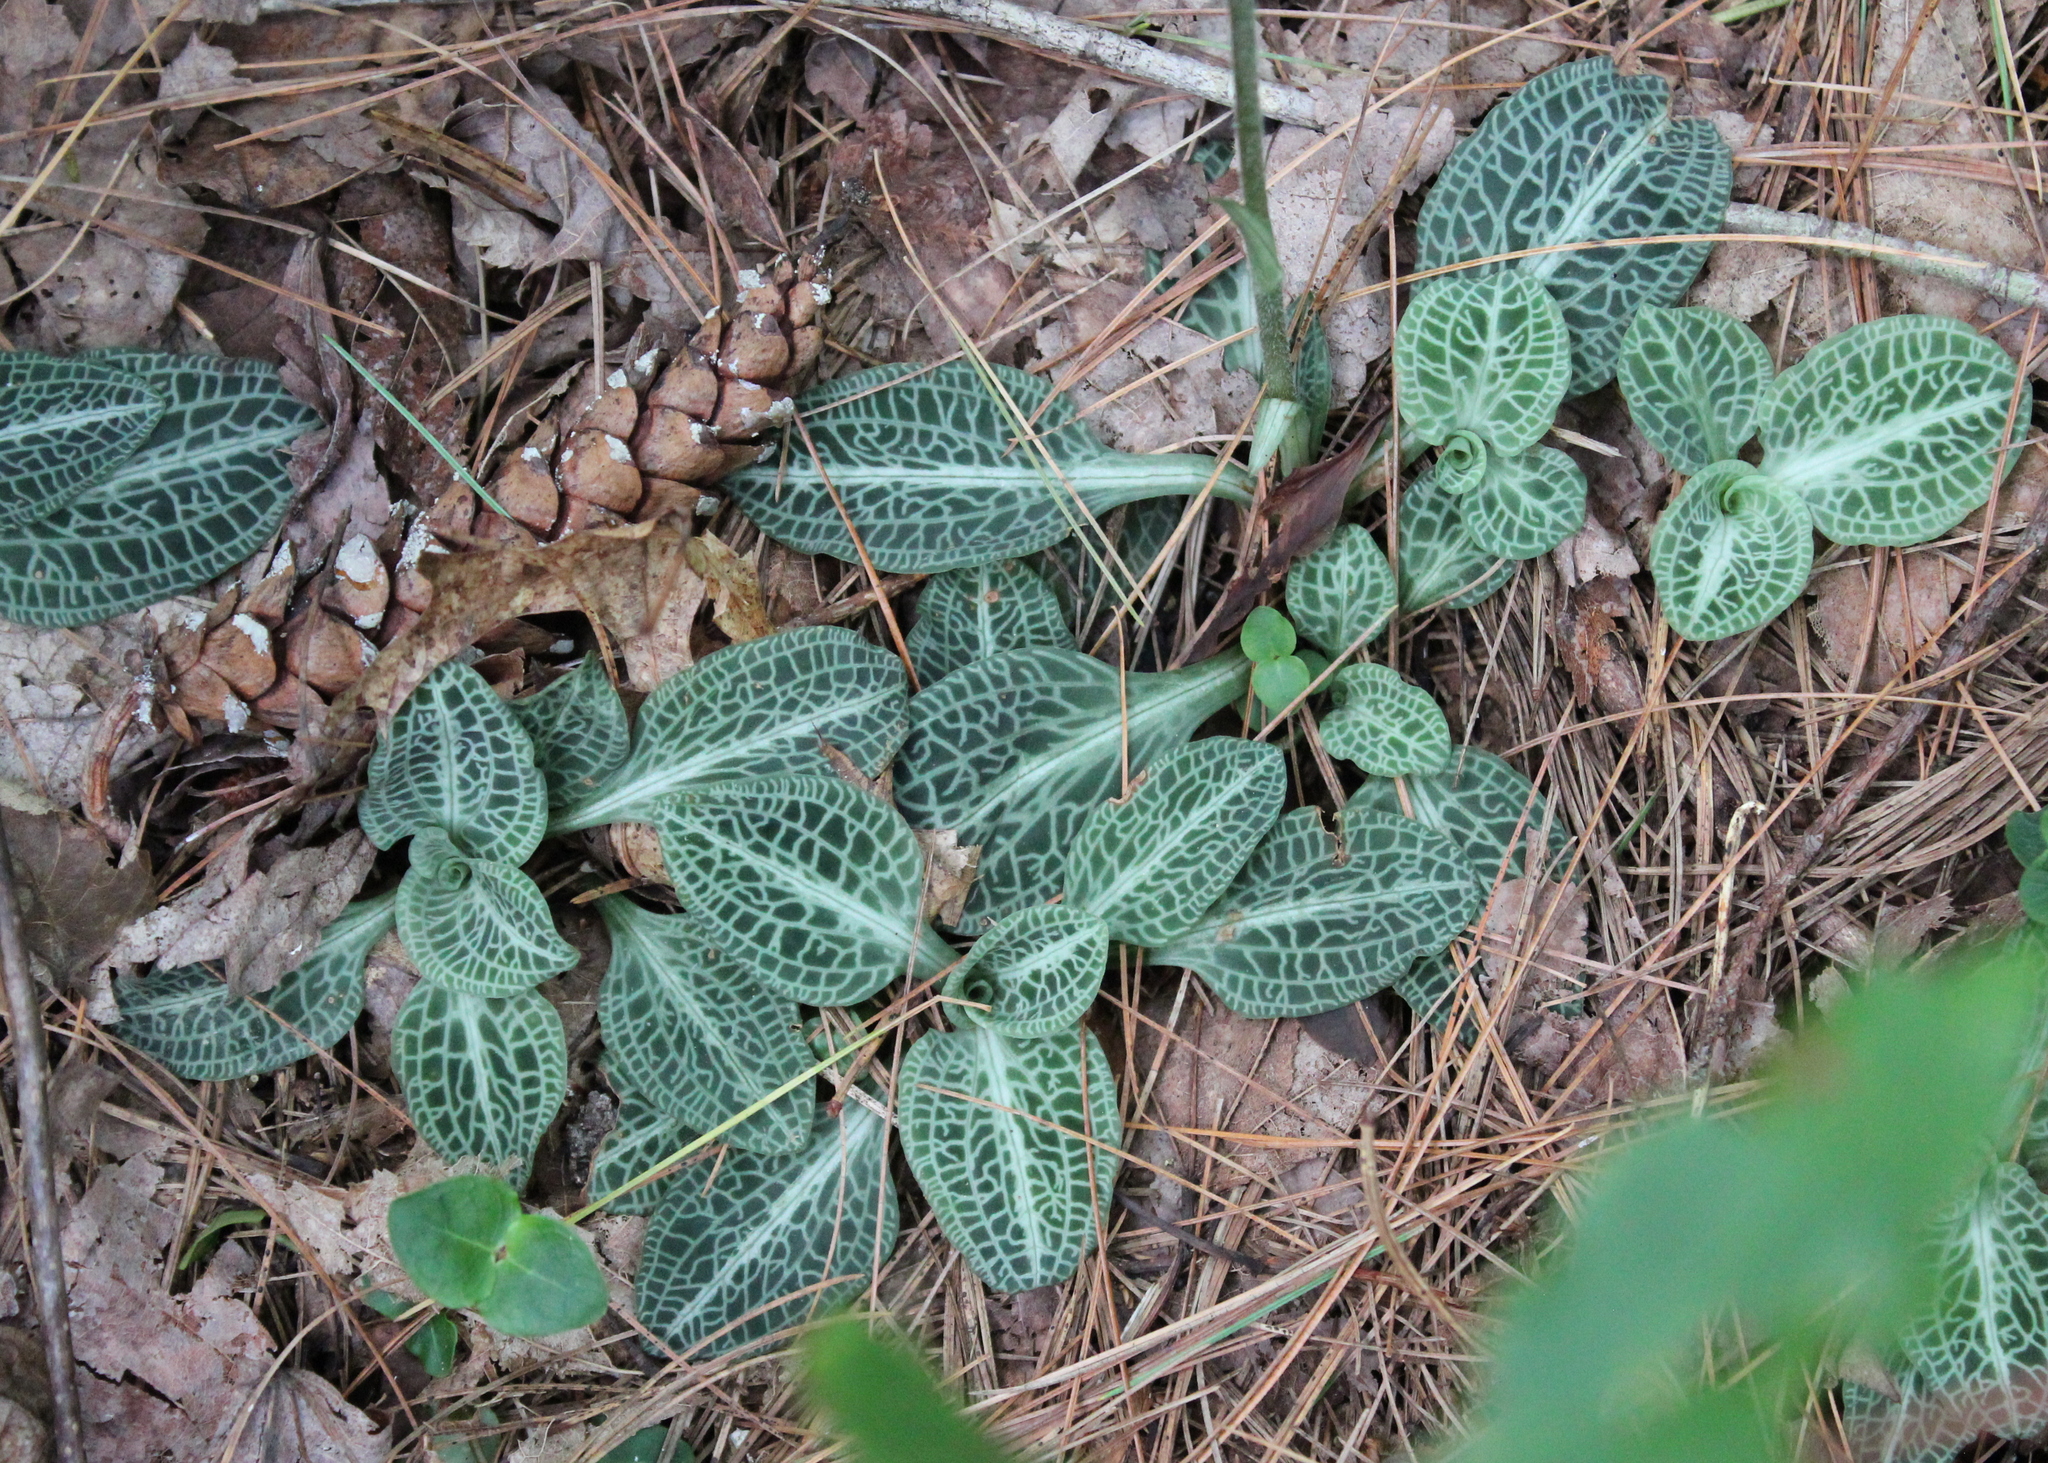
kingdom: Plantae
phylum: Tracheophyta
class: Liliopsida
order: Asparagales
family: Orchidaceae
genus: Goodyera
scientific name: Goodyera pubescens
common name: Downy rattlesnake-plantain
